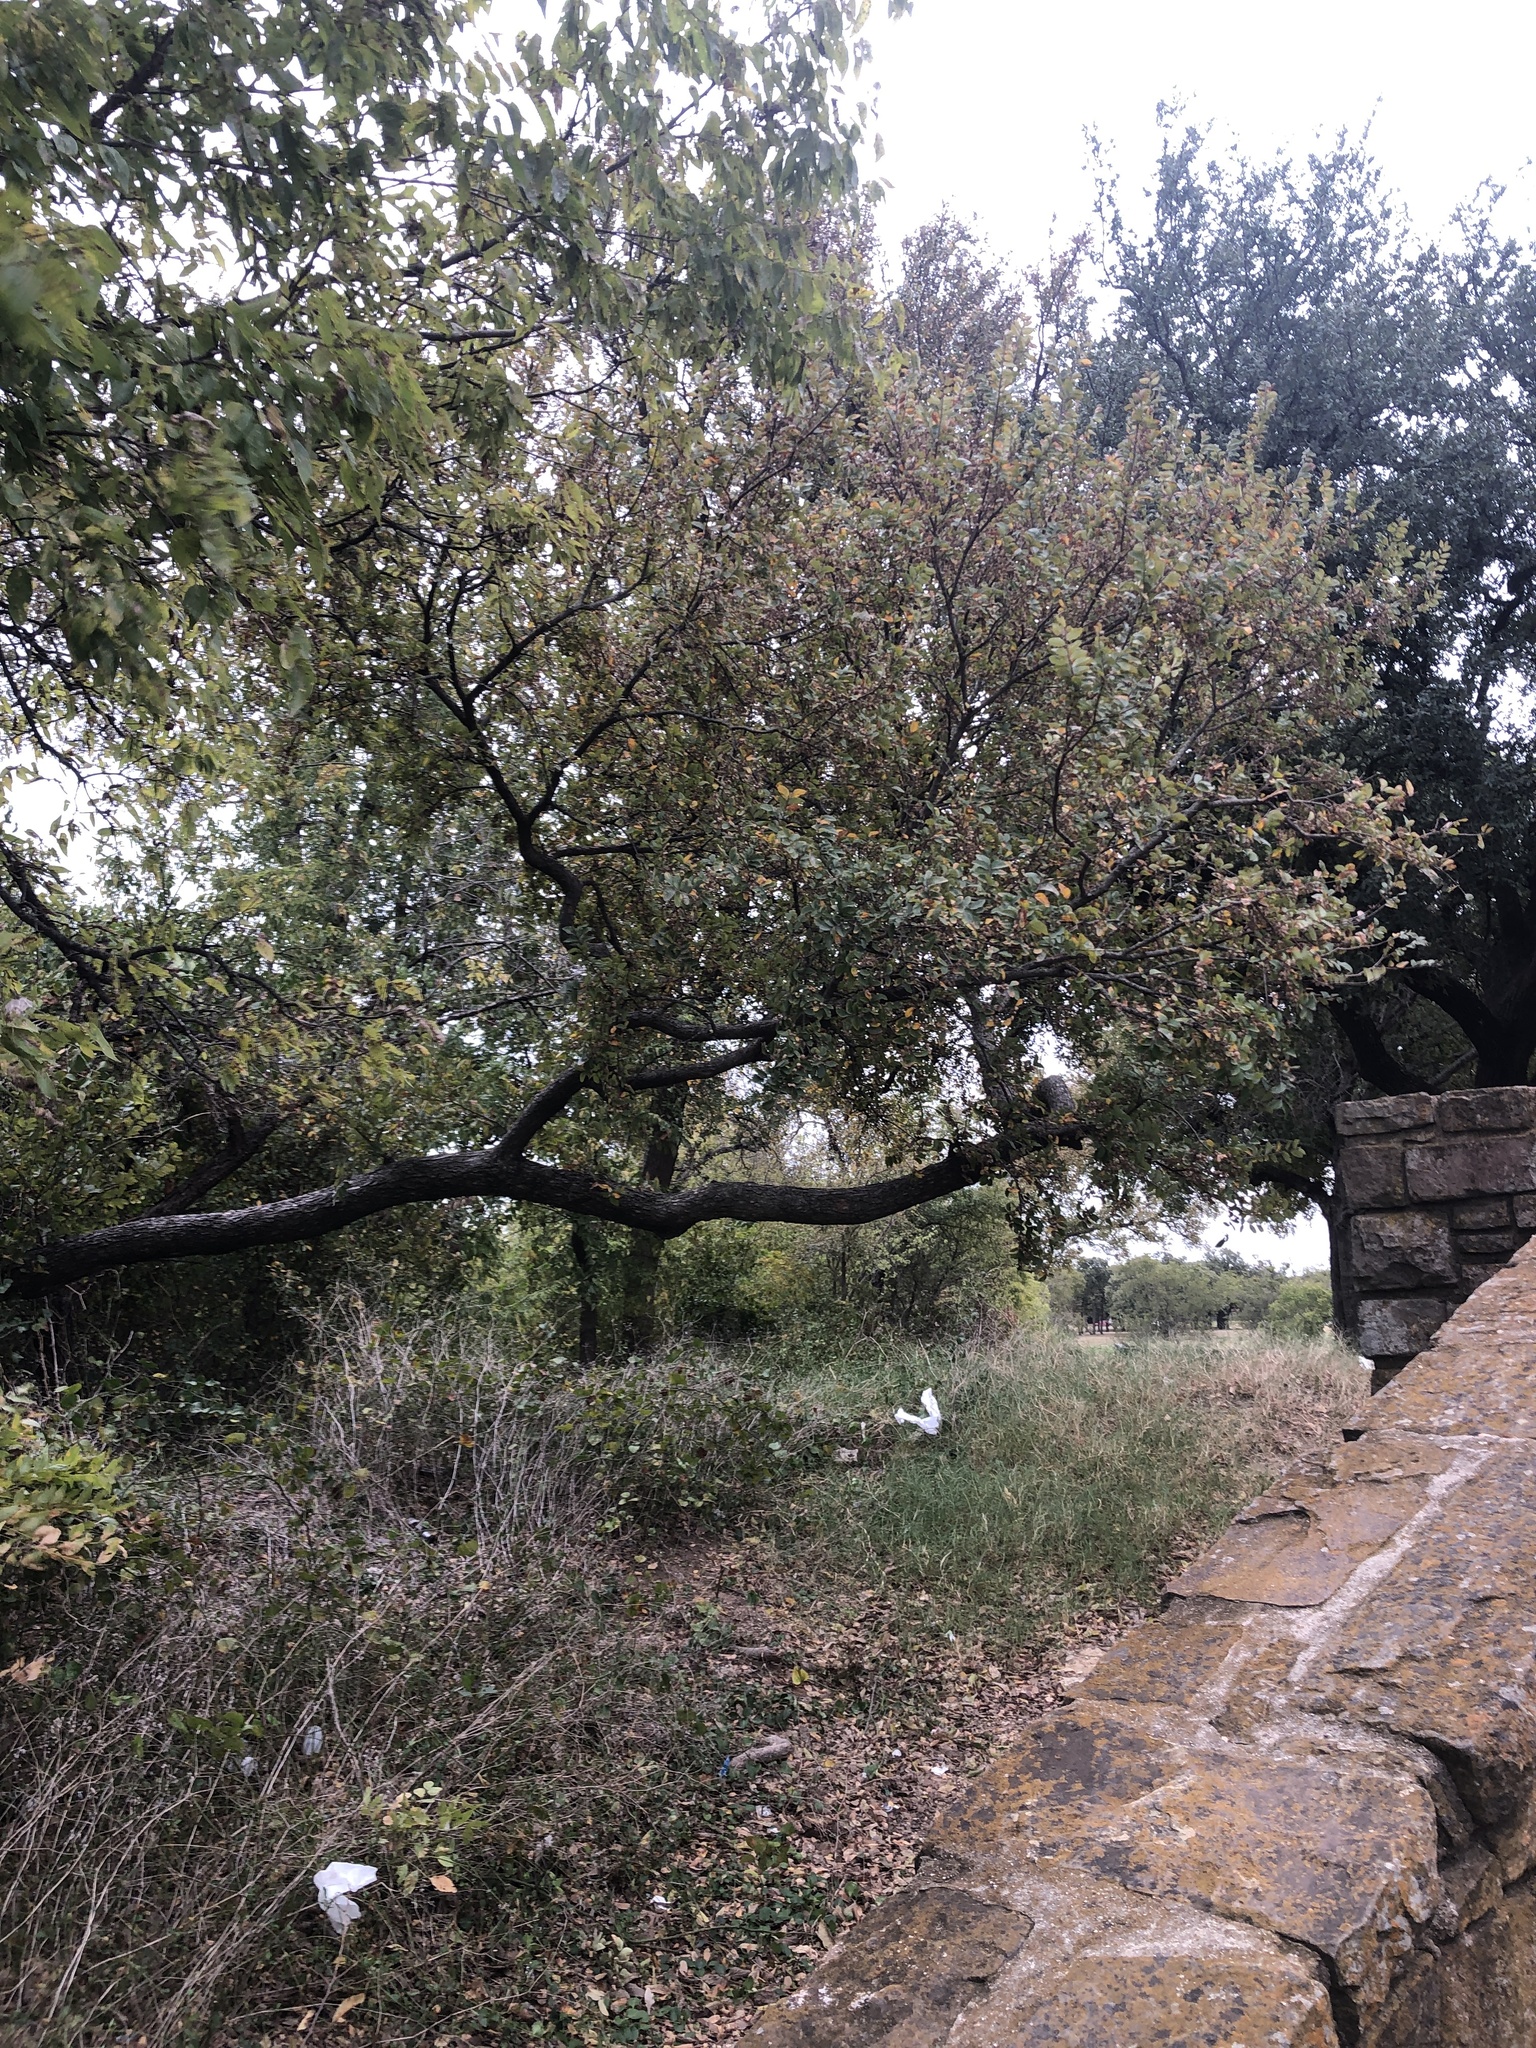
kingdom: Plantae
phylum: Tracheophyta
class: Magnoliopsida
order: Rosales
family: Ulmaceae
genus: Ulmus
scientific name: Ulmus crassifolia
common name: Basket elm
